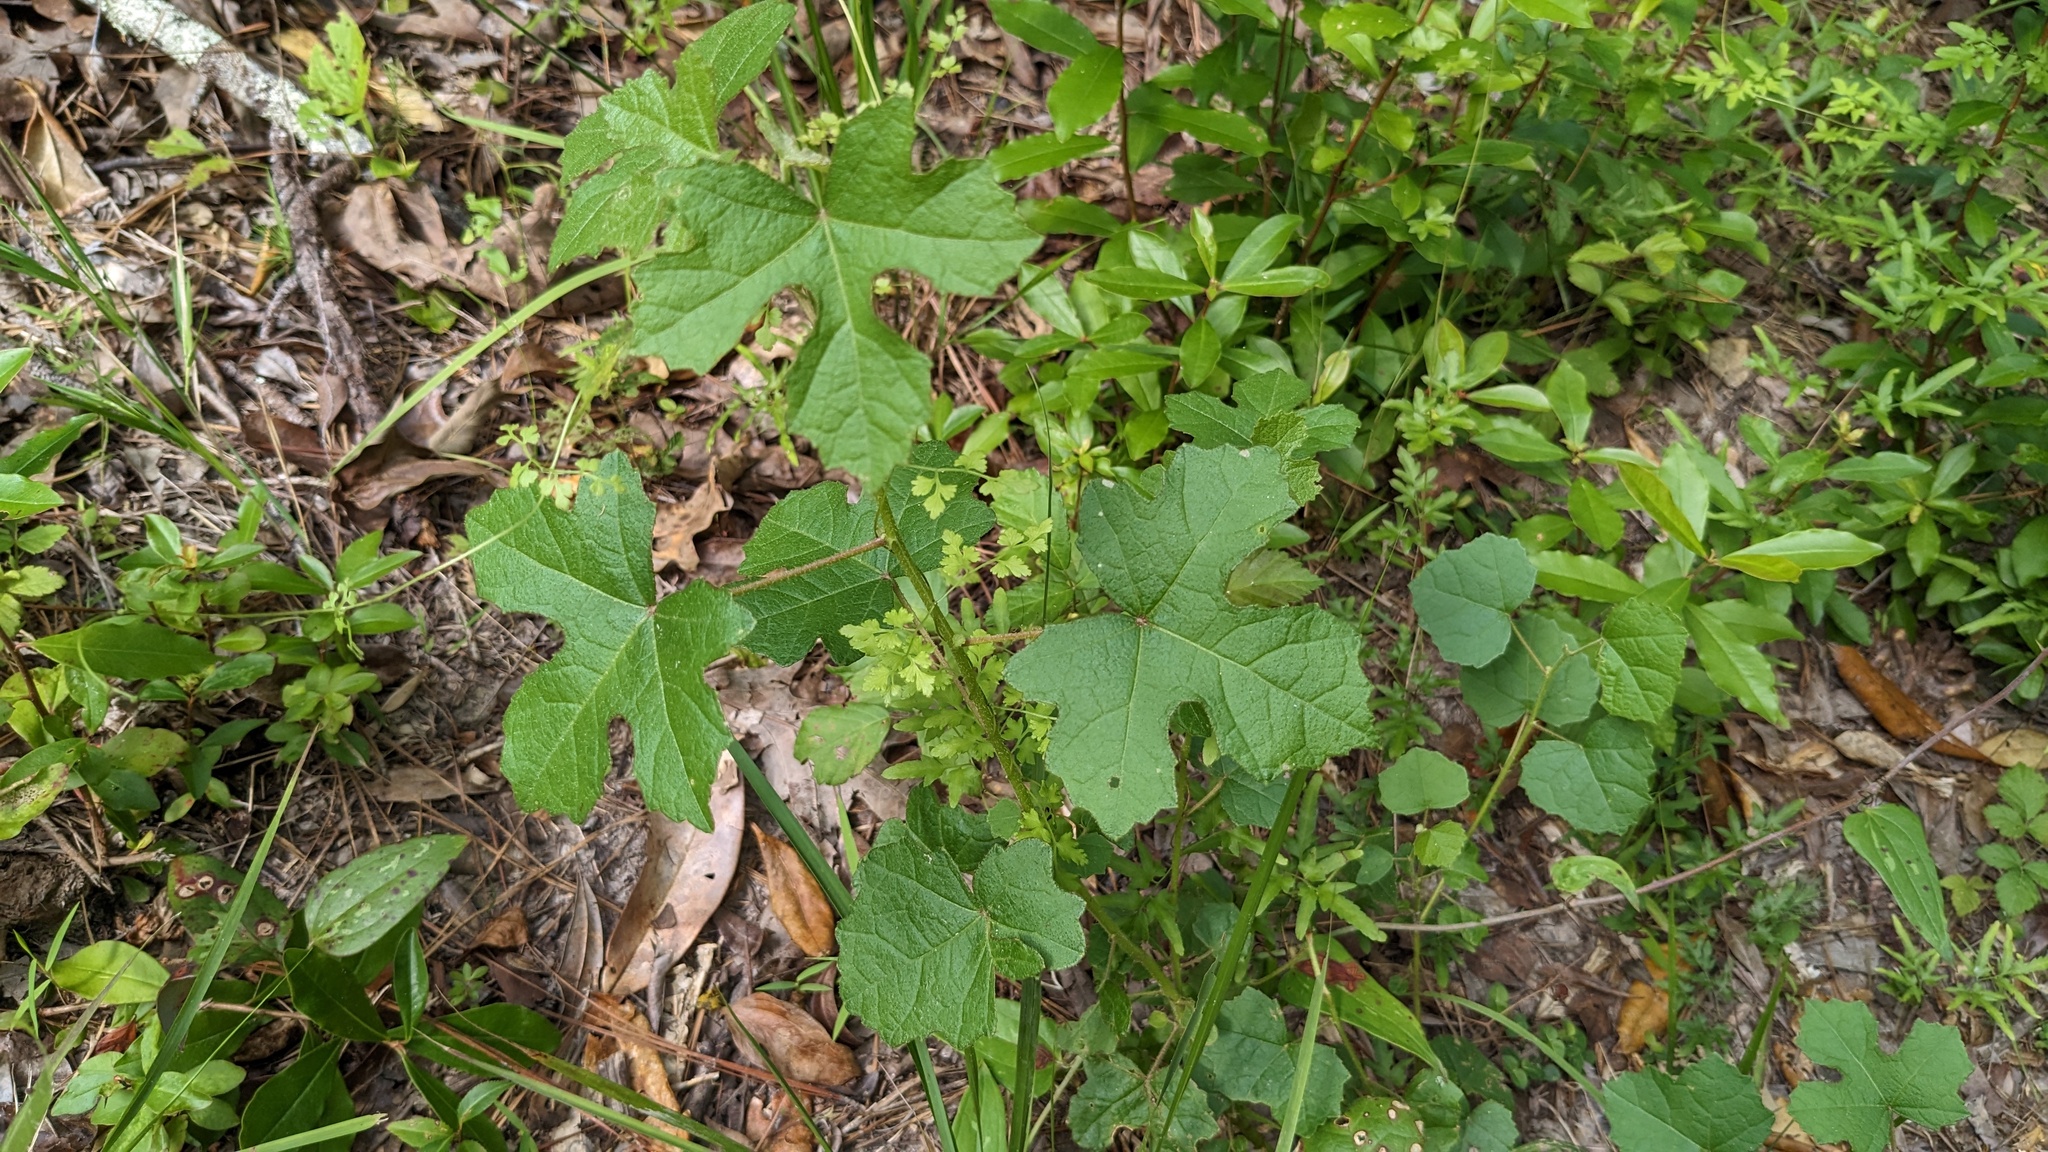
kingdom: Plantae
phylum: Tracheophyta
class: Magnoliopsida
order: Malvales
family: Malvaceae
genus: Hibiscus
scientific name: Hibiscus aculeatus
